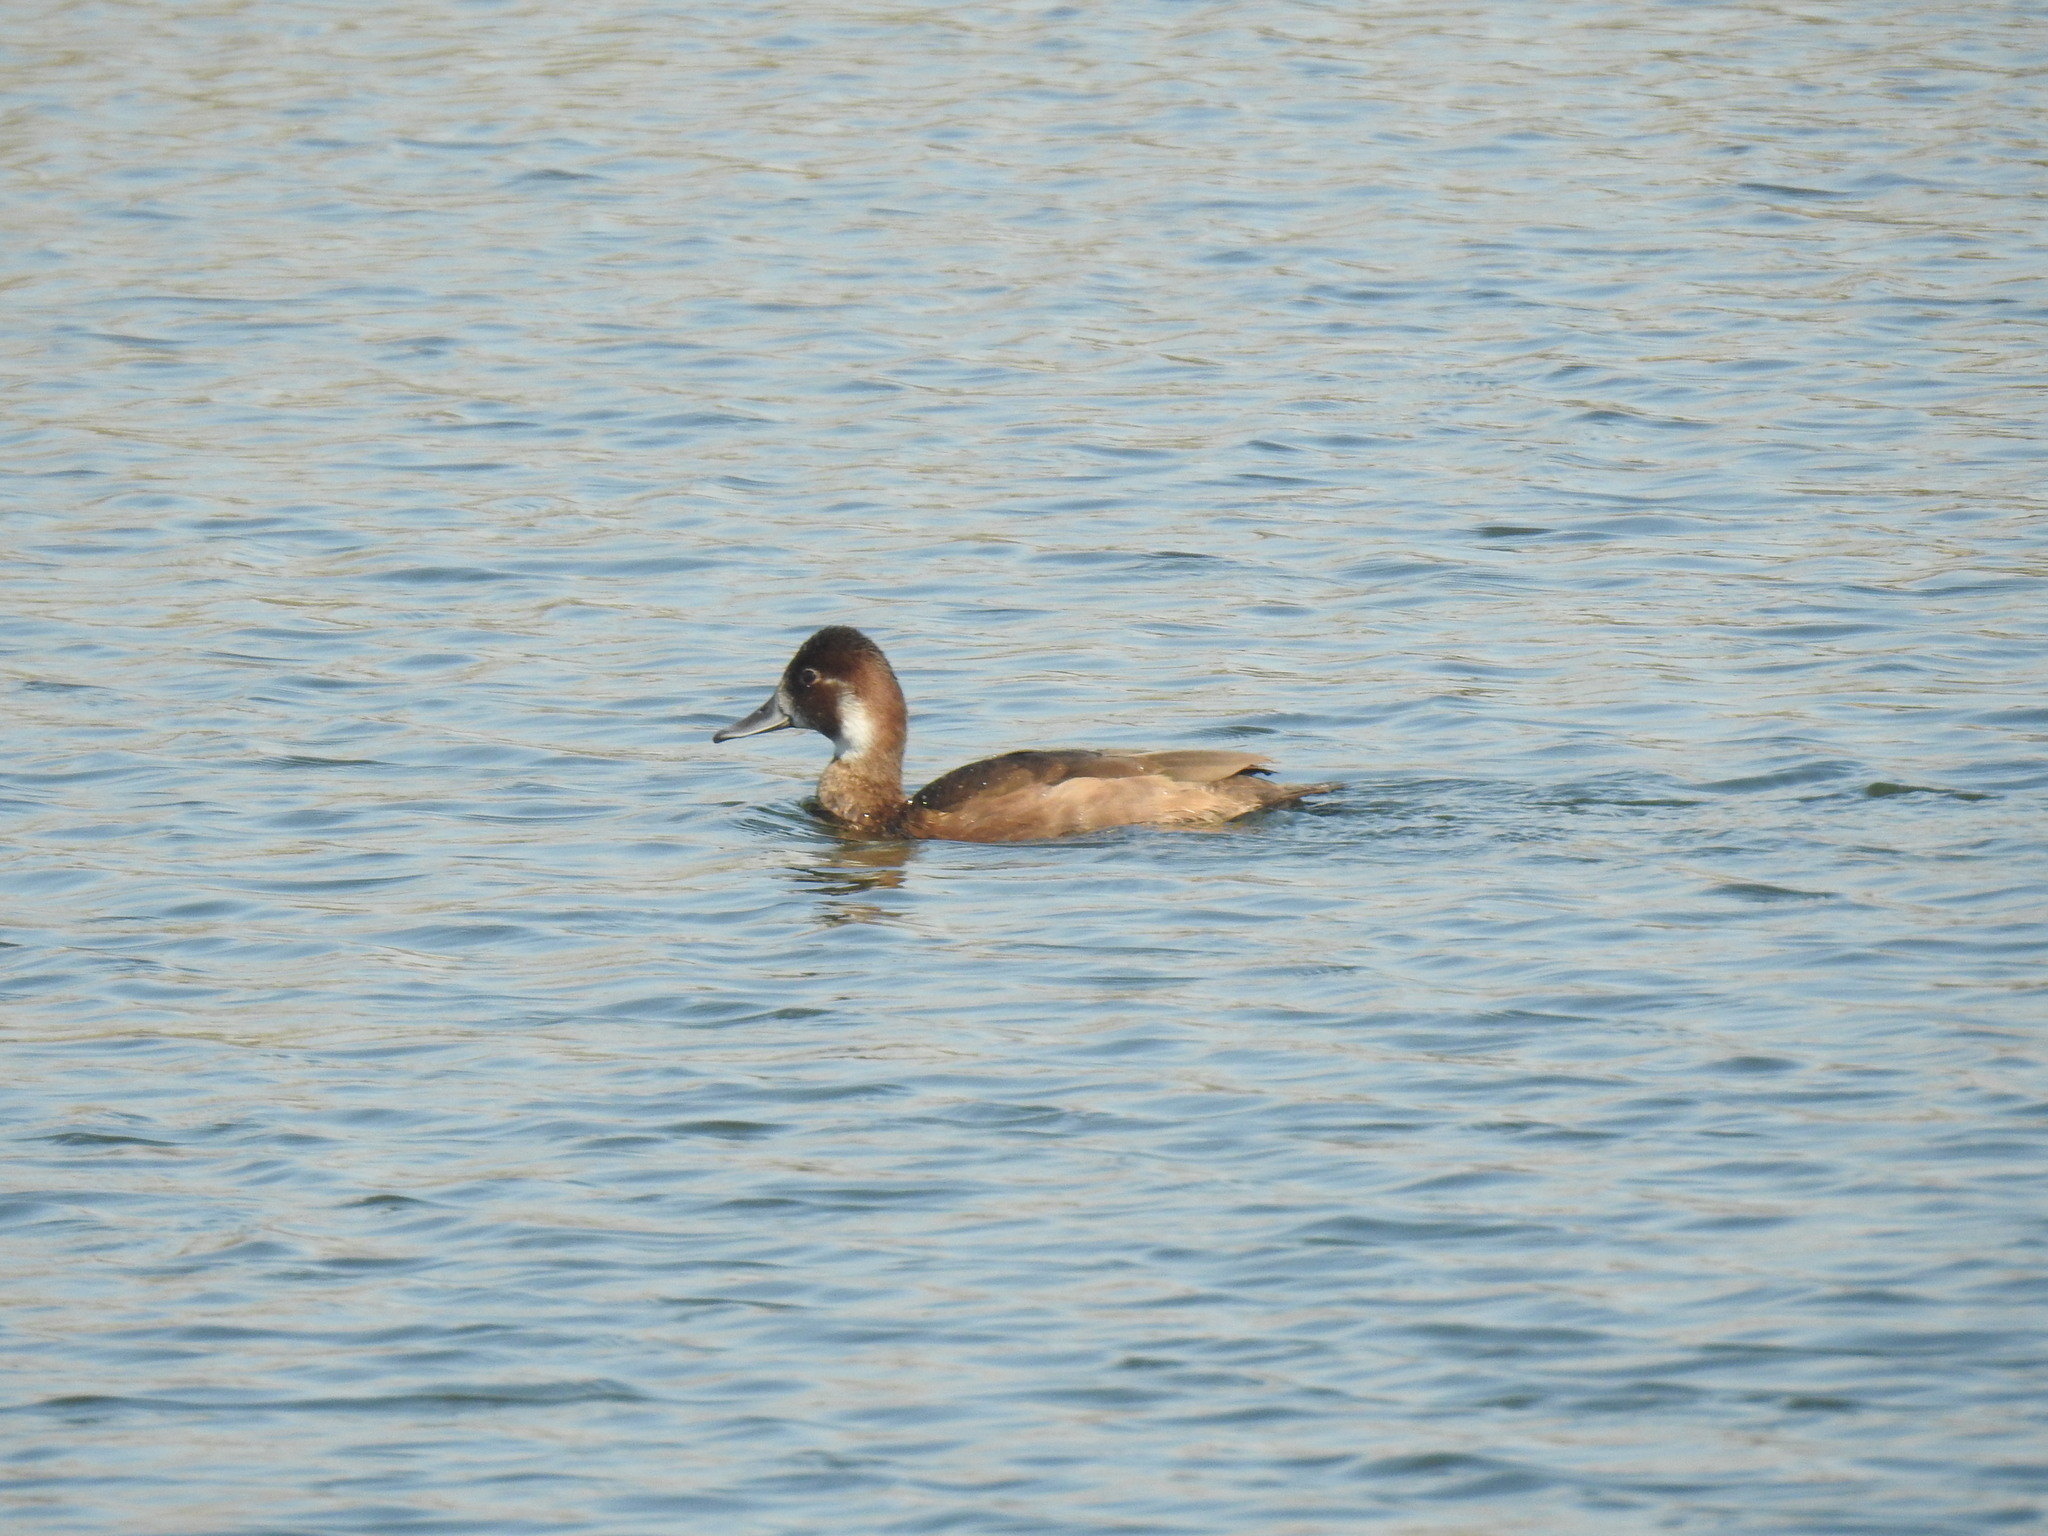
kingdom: Animalia
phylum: Chordata
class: Aves
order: Anseriformes
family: Anatidae
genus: Netta
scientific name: Netta erythrophthalma
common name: Southern pochard
